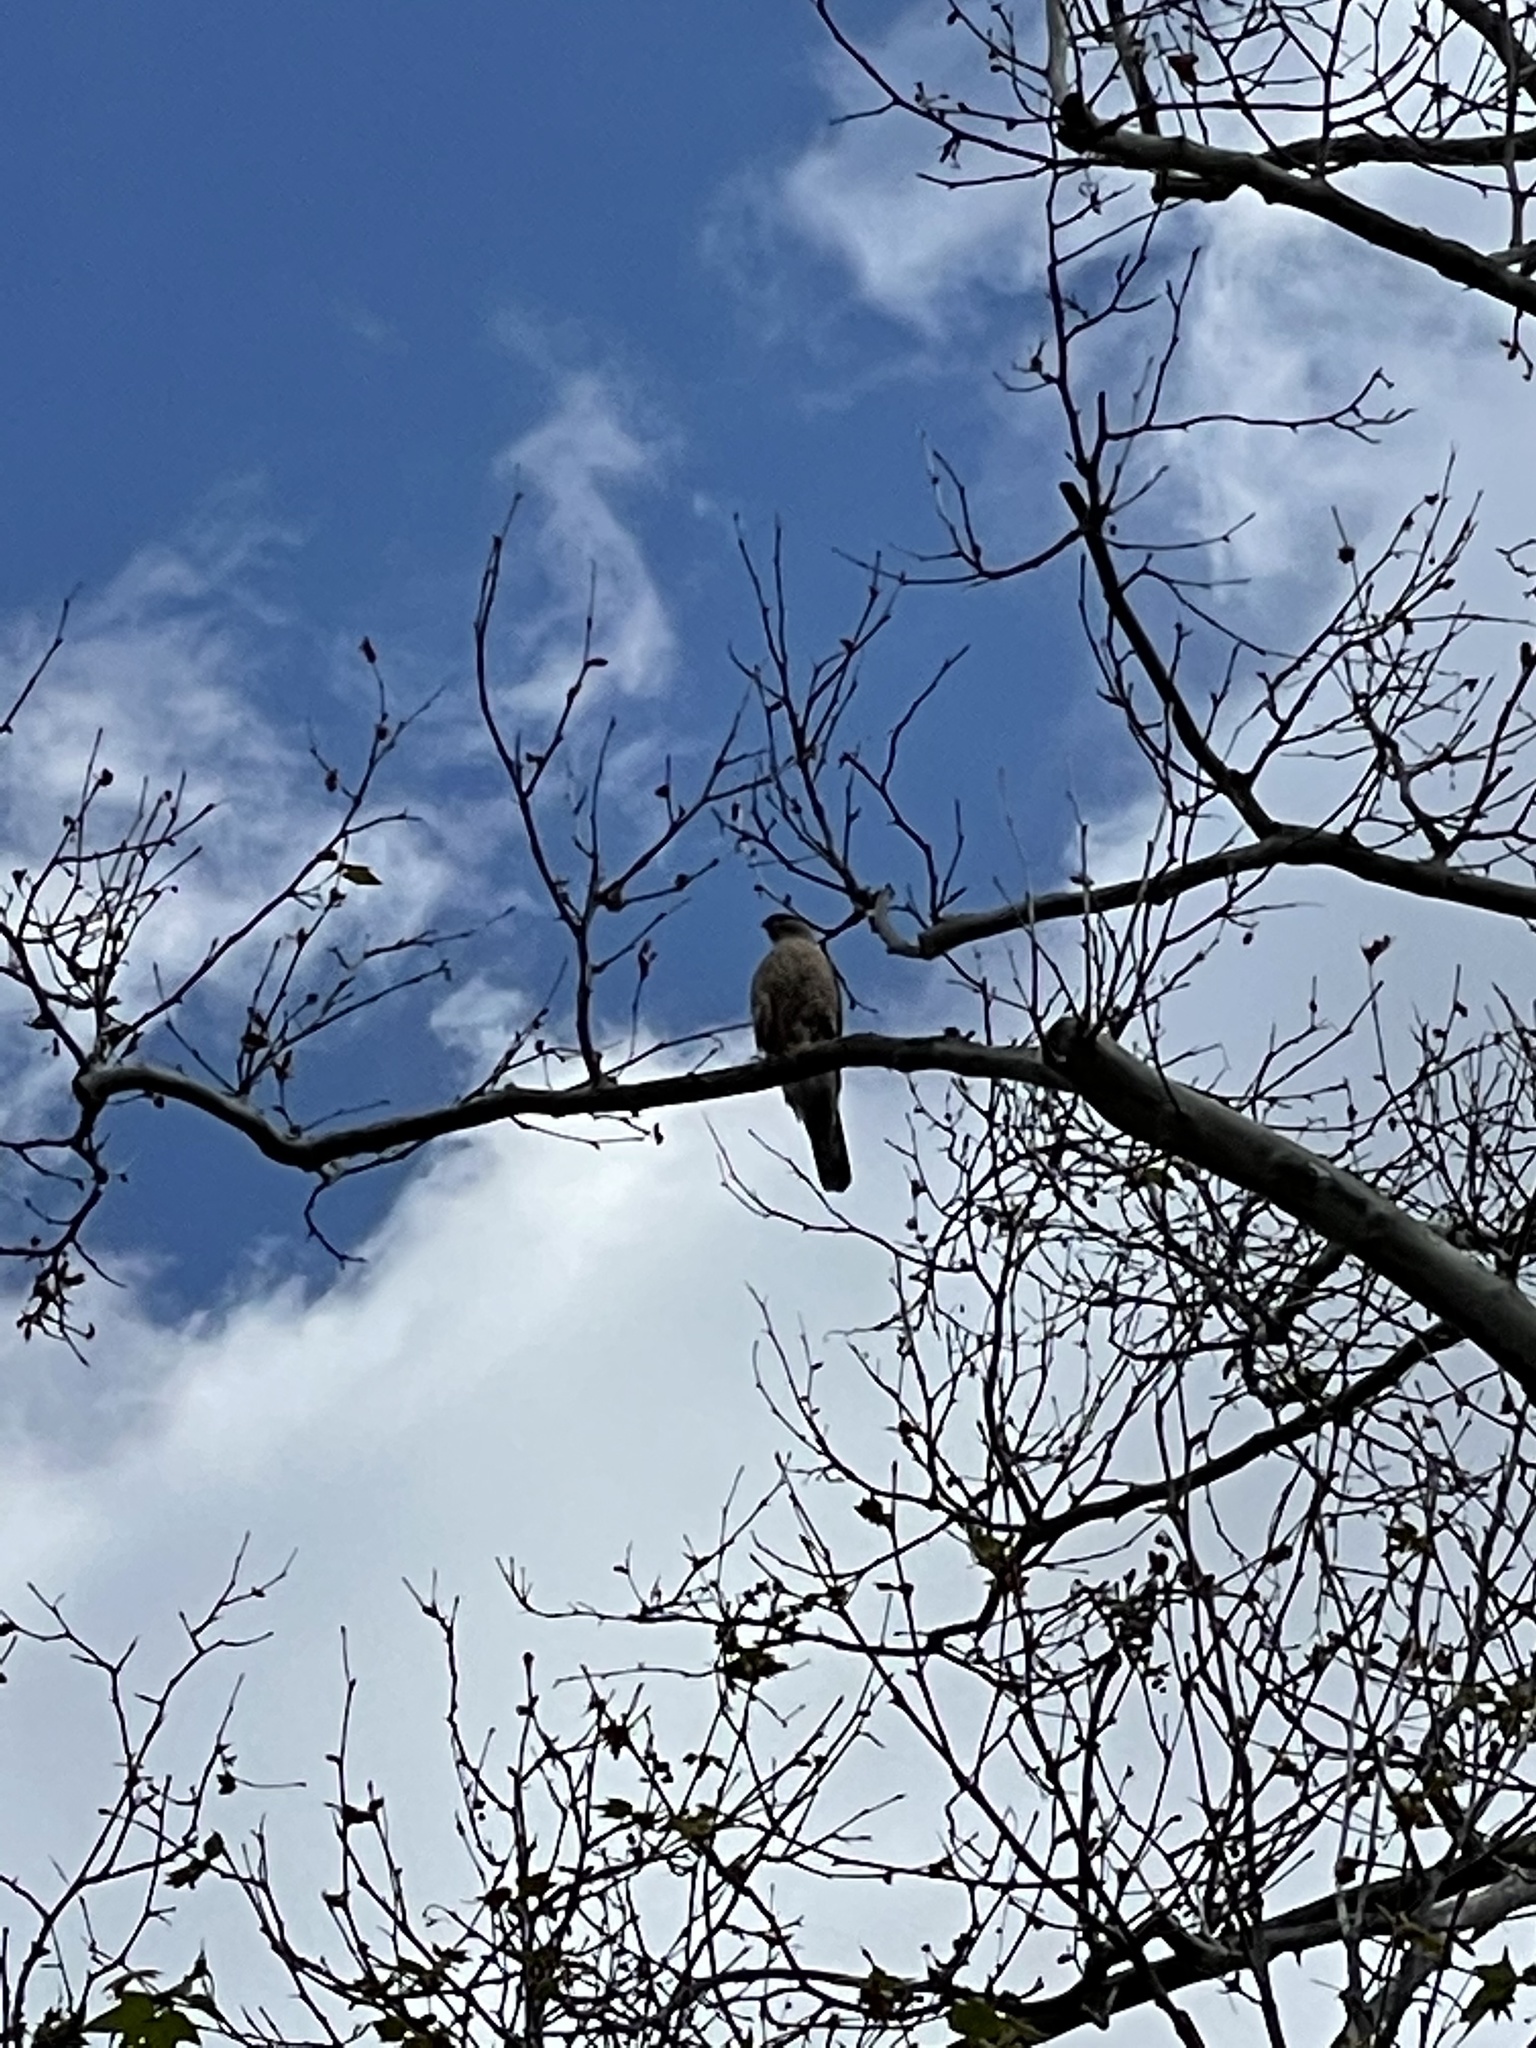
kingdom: Animalia
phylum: Chordata
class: Aves
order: Accipitriformes
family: Accipitridae
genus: Accipiter
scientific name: Accipiter cooperii
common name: Cooper's hawk
